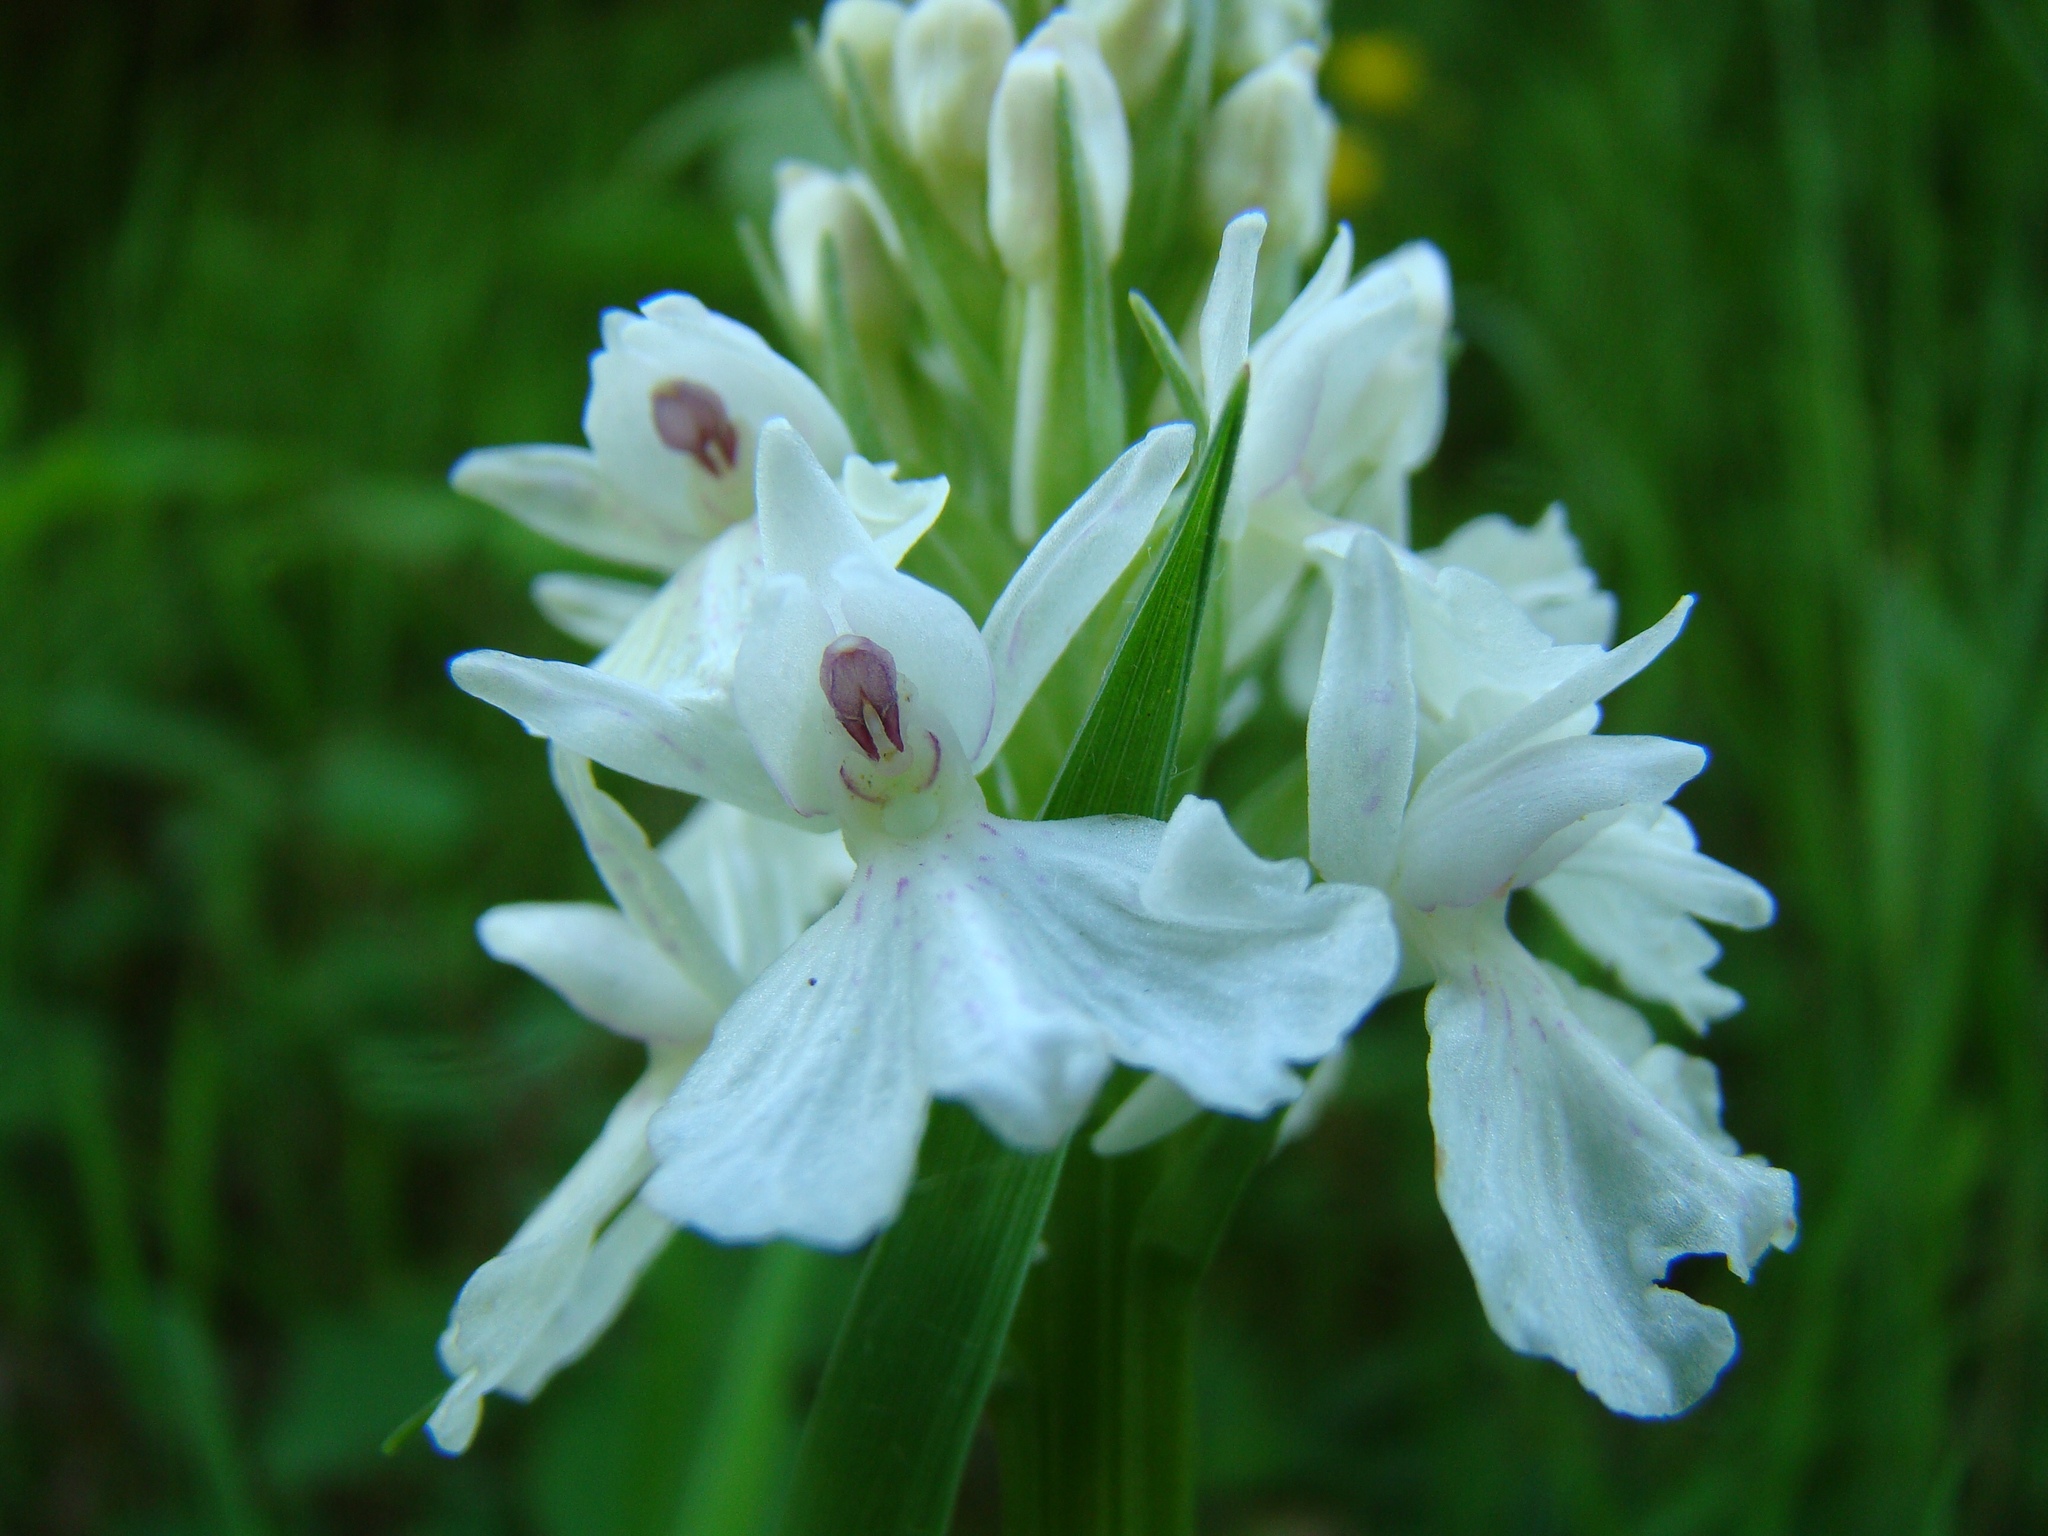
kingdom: Plantae
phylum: Tracheophyta
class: Liliopsida
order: Asparagales
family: Orchidaceae
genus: Dactylorhiza
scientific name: Dactylorhiza maculata
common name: Heath spotted-orchid
